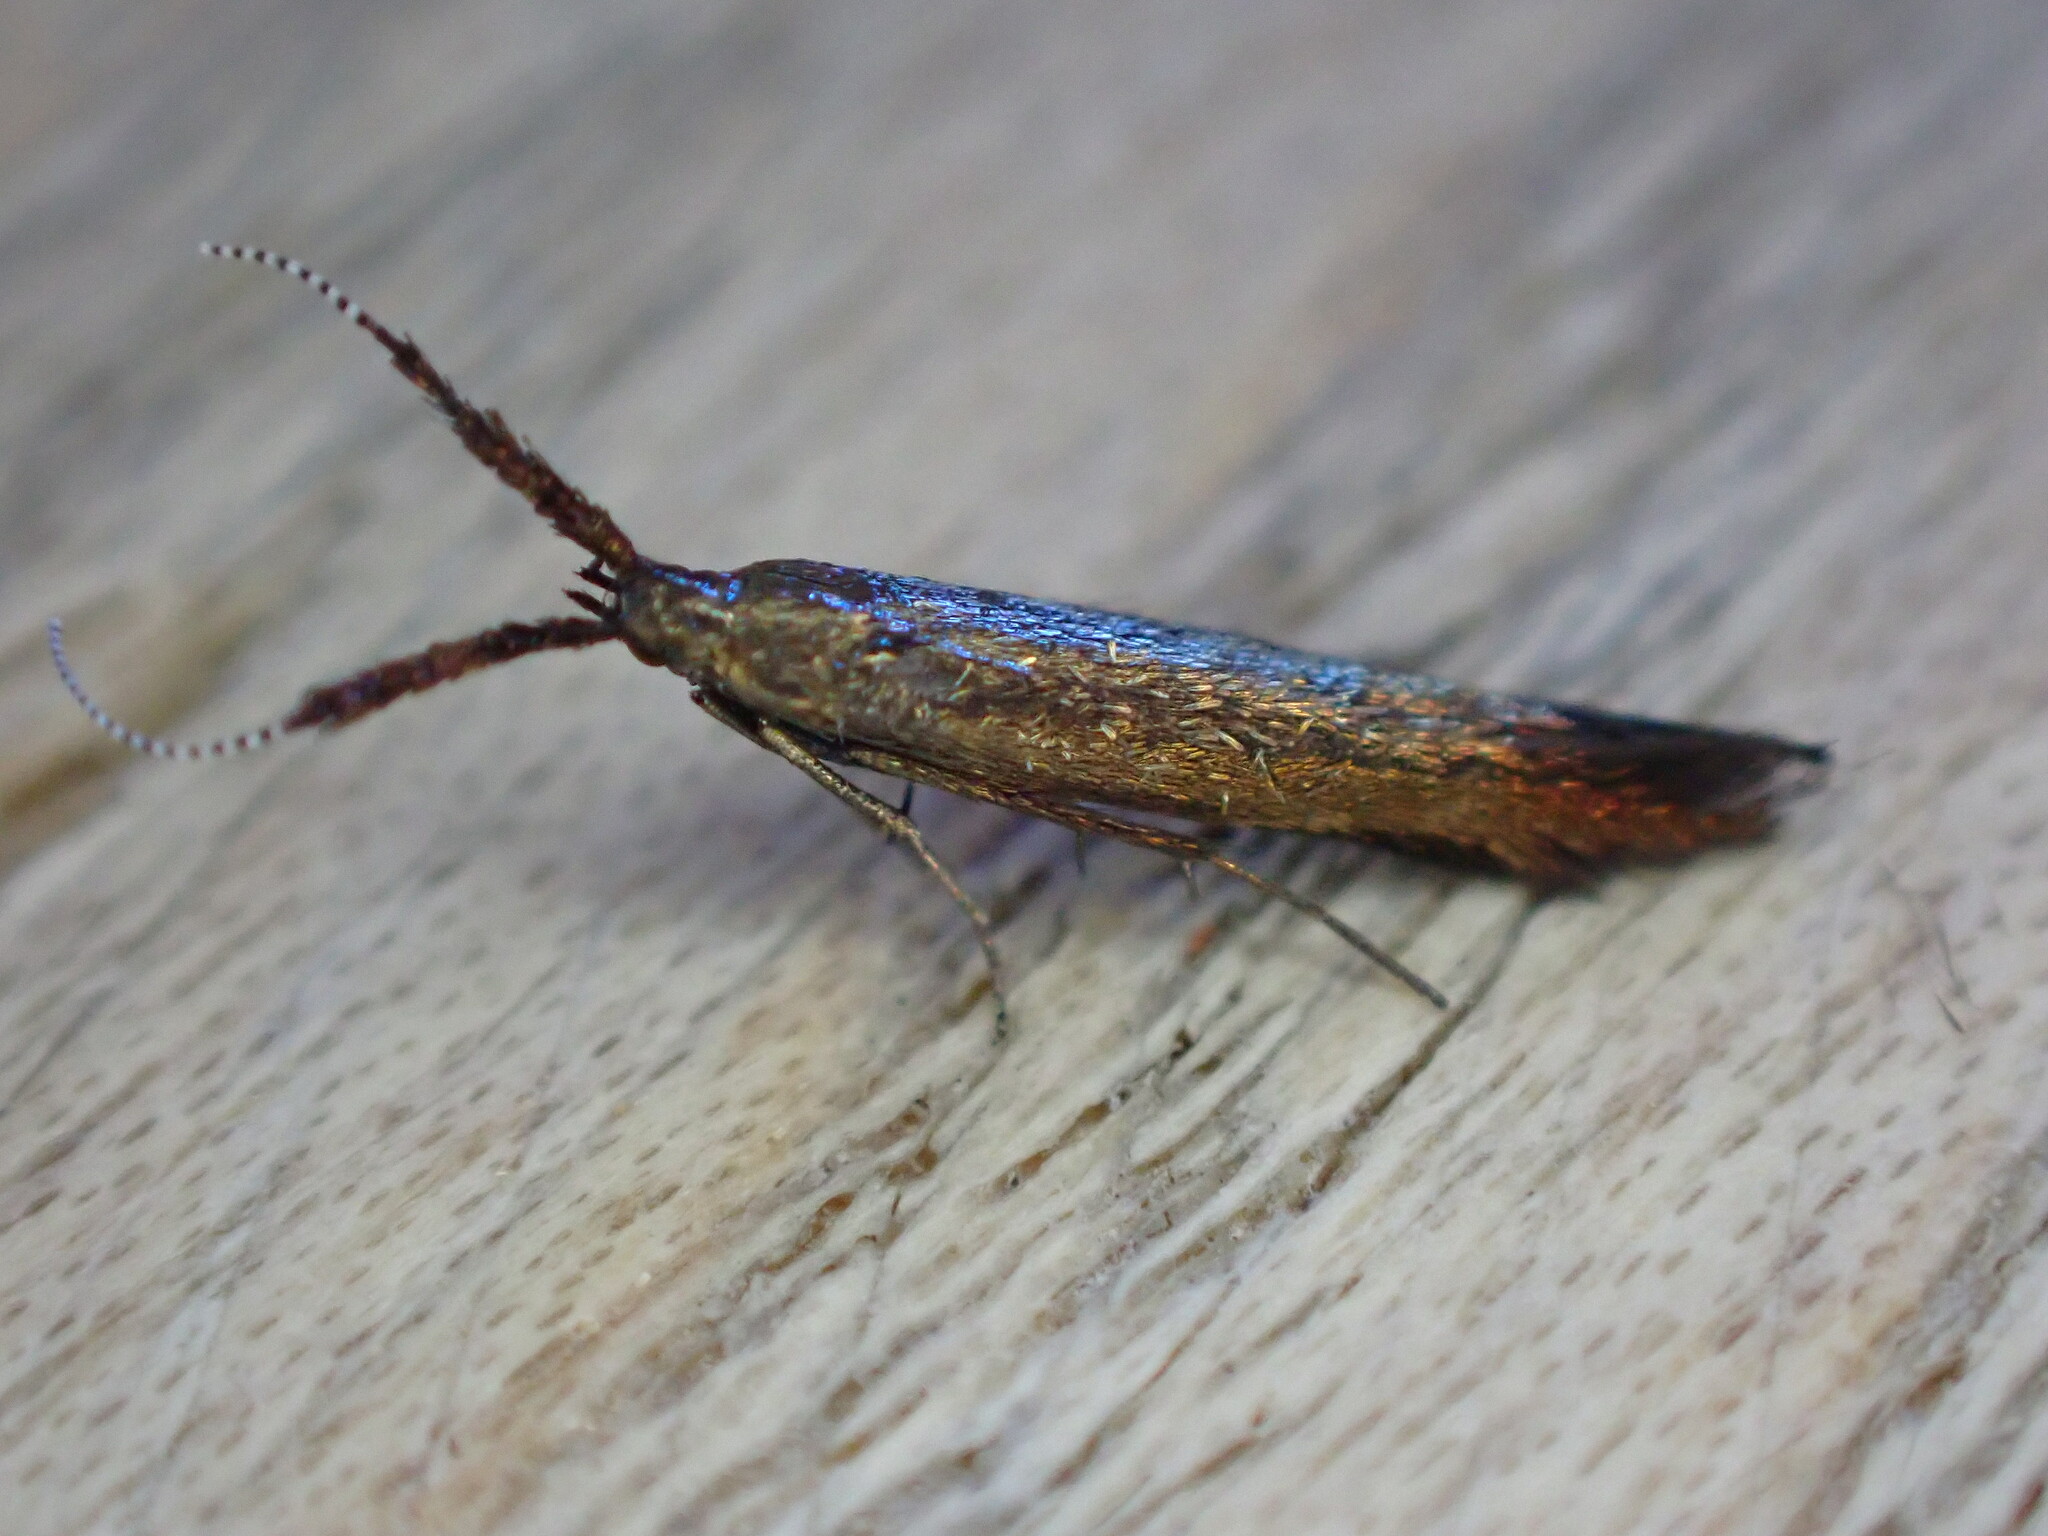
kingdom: Animalia
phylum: Arthropoda
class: Insecta
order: Lepidoptera
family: Coleophoridae
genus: Coleophora
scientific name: Coleophora mayrella
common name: Meadow case-bearer
